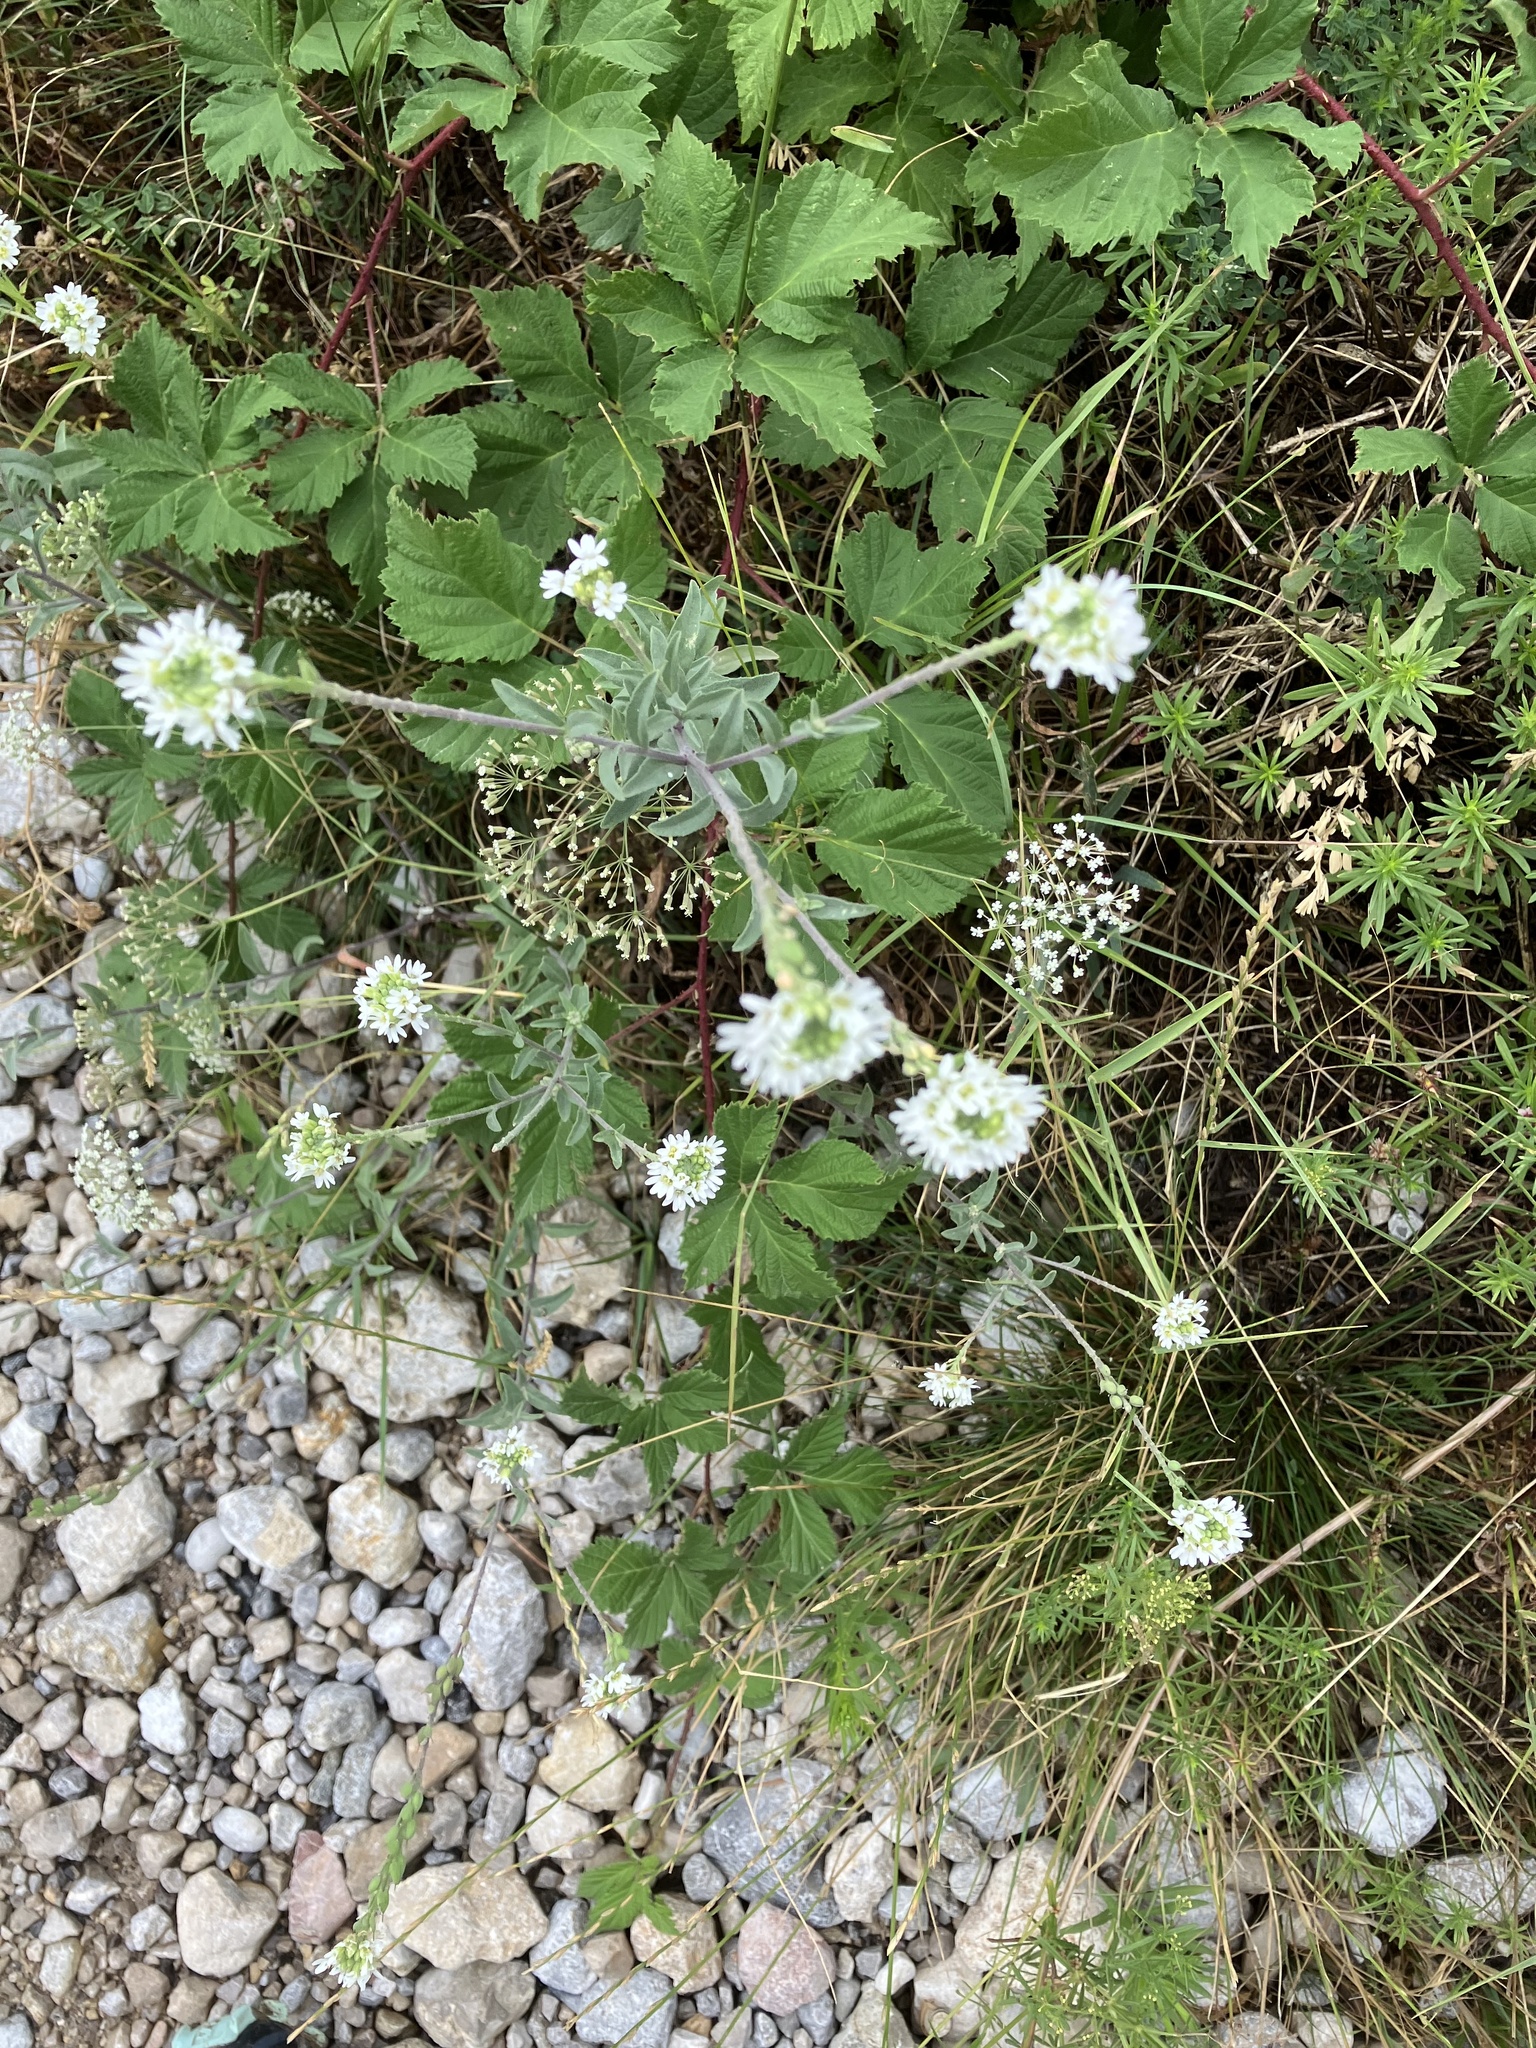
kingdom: Plantae
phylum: Tracheophyta
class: Magnoliopsida
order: Brassicales
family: Brassicaceae
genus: Berteroa
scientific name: Berteroa incana
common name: Hoary alison
